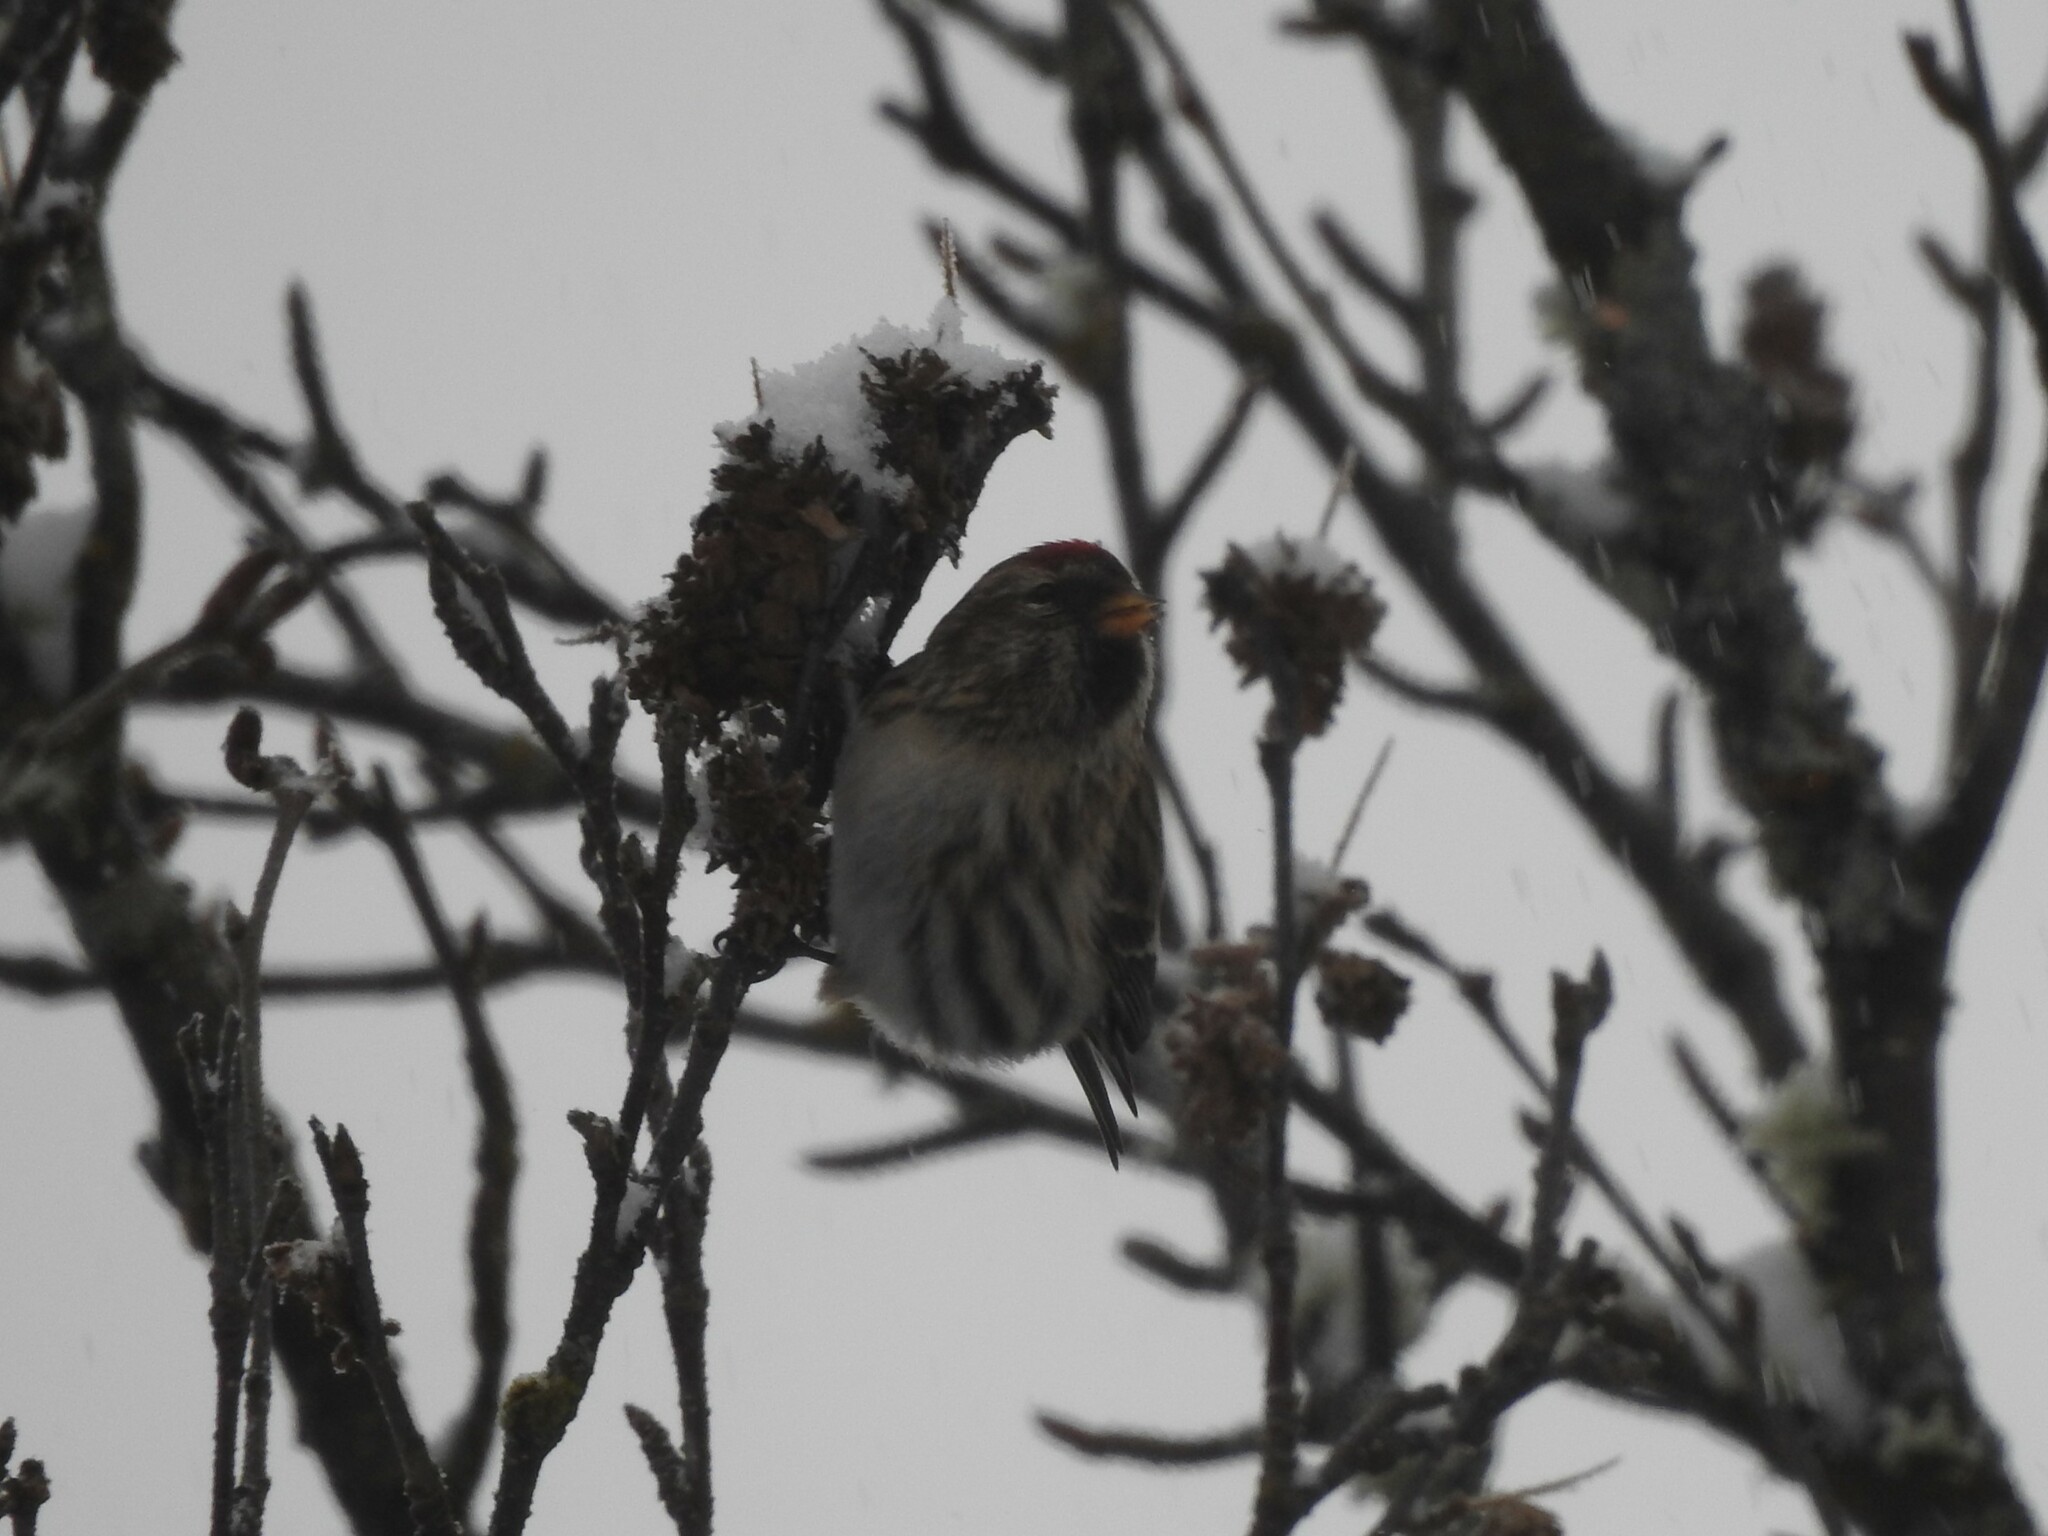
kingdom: Animalia
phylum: Chordata
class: Aves
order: Passeriformes
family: Fringillidae
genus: Acanthis
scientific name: Acanthis flammea
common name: Common redpoll
